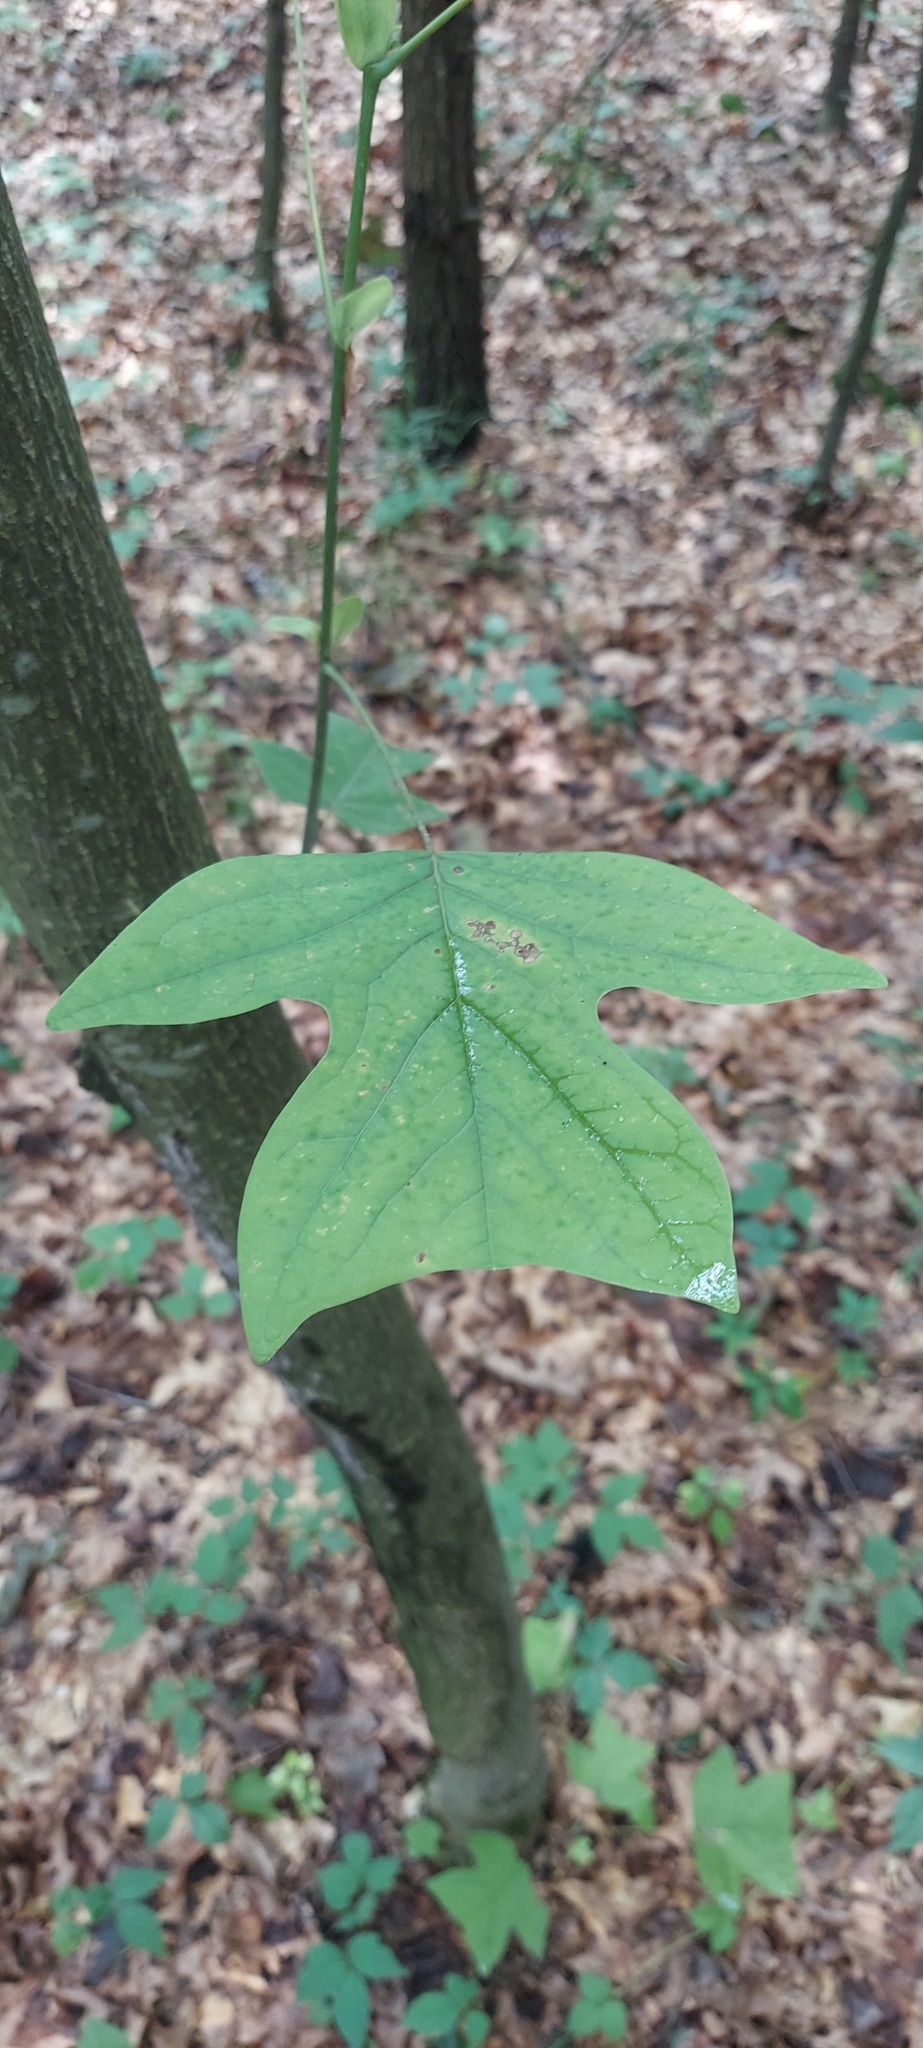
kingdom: Plantae
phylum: Tracheophyta
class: Magnoliopsida
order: Magnoliales
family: Magnoliaceae
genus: Liriodendron
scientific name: Liriodendron tulipifera
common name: Tulip tree
